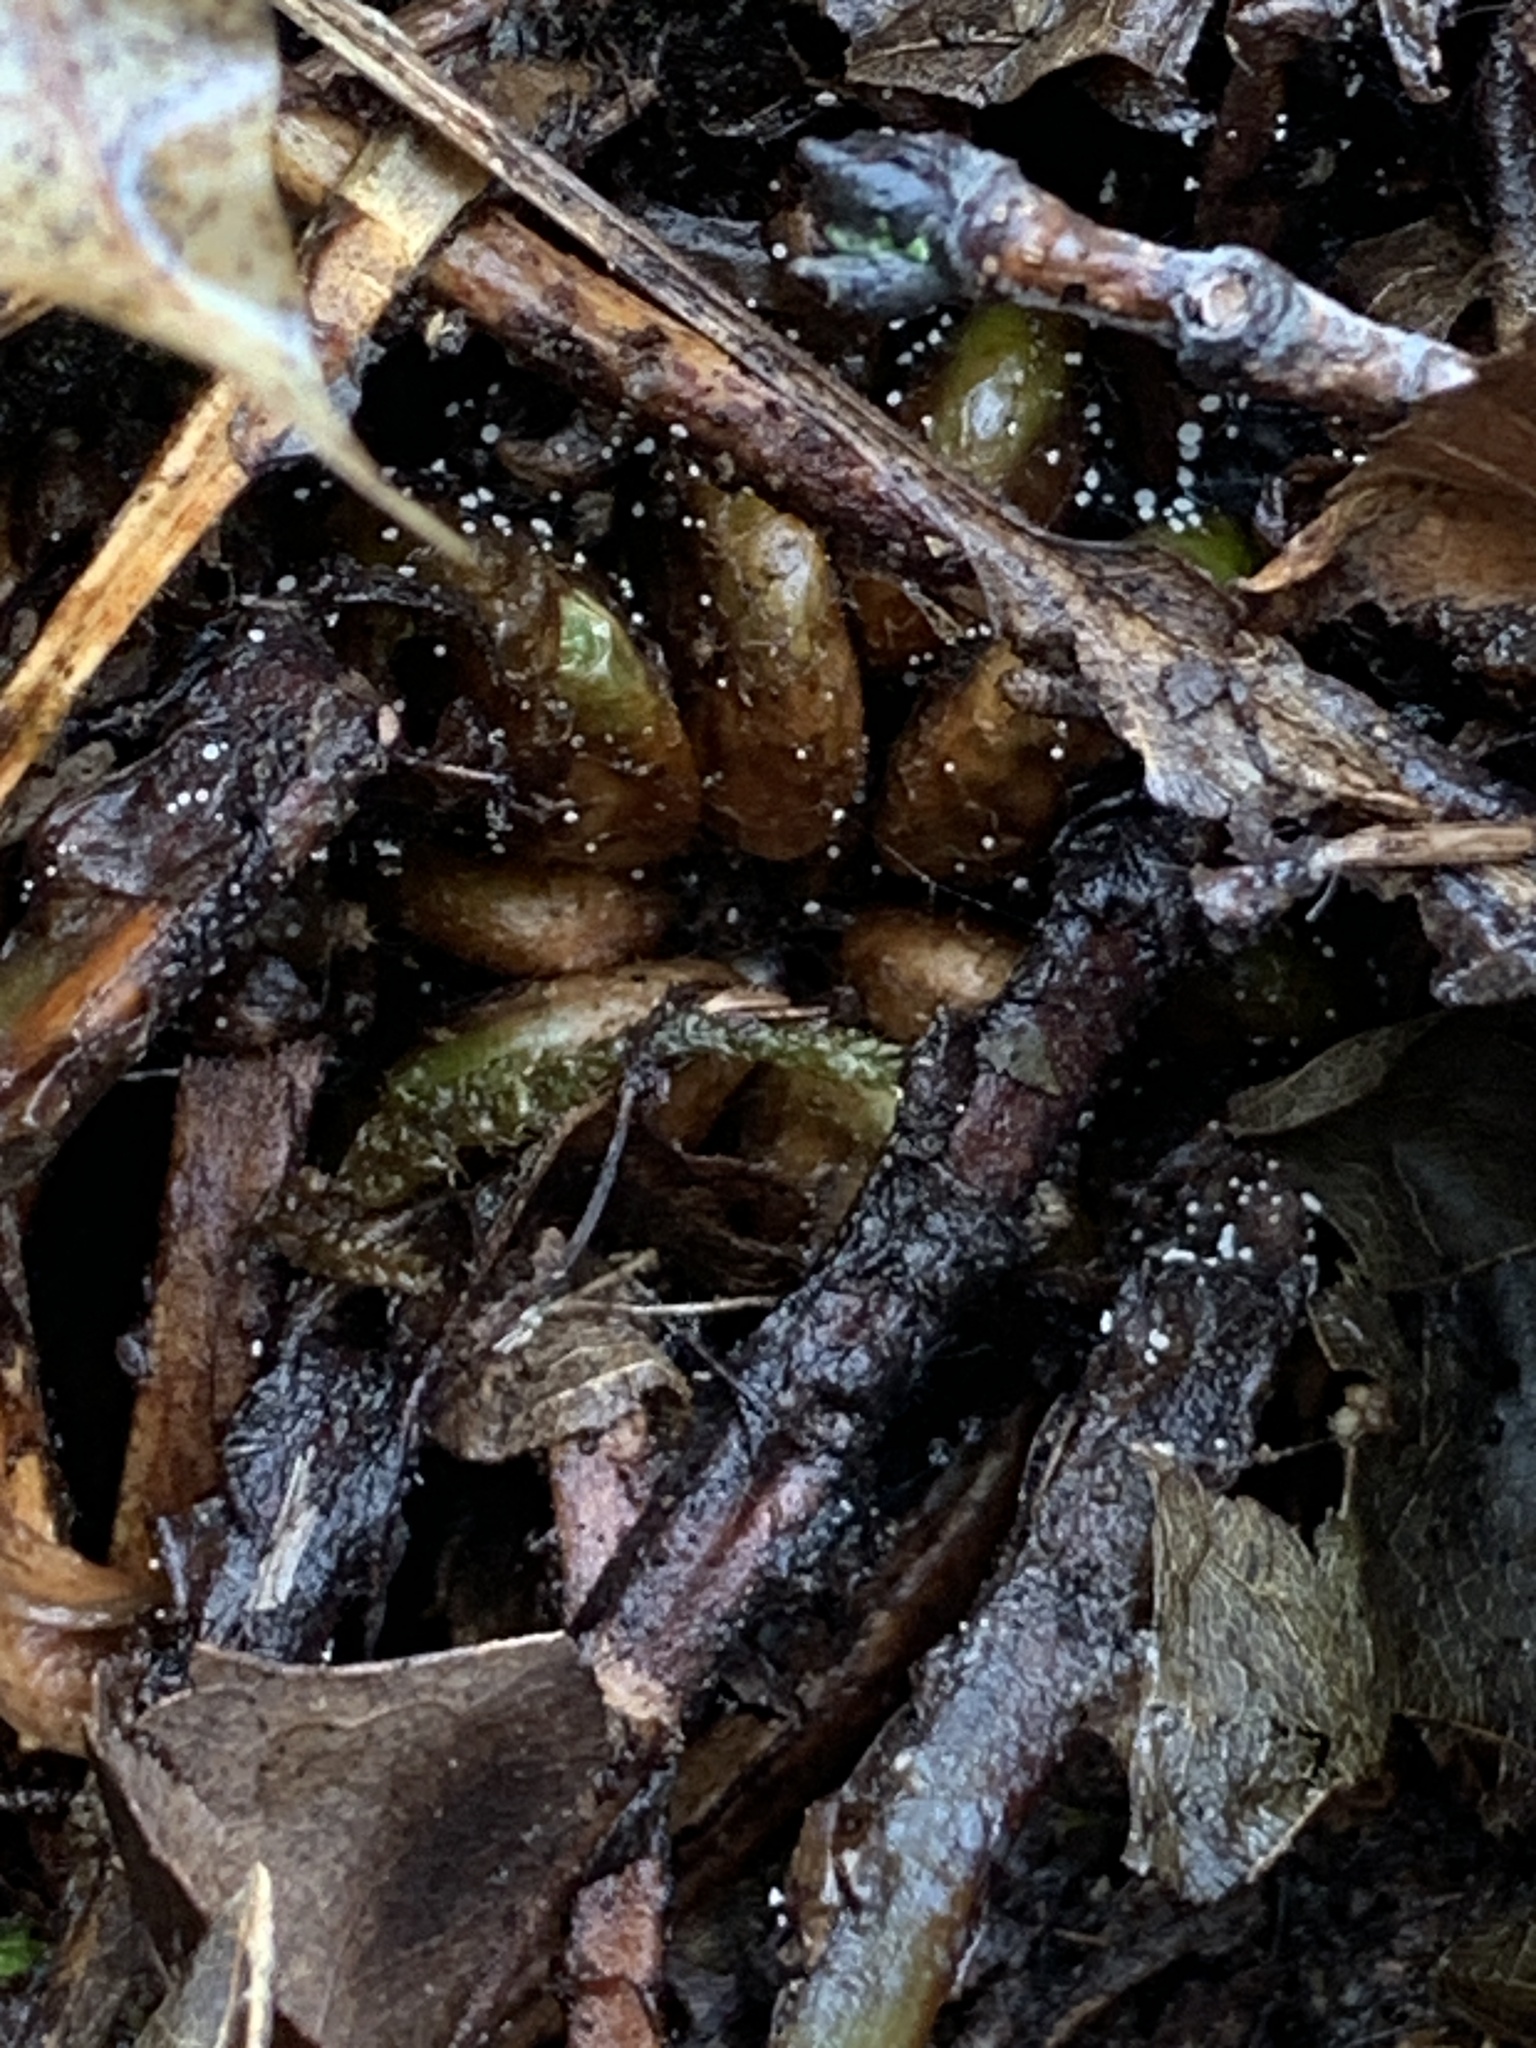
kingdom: Plantae
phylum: Tracheophyta
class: Polypodiopsida
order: Polypodiales
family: Dryopteridaceae
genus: Dryopteris
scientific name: Dryopteris intermedia
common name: Evergreen wood fern
